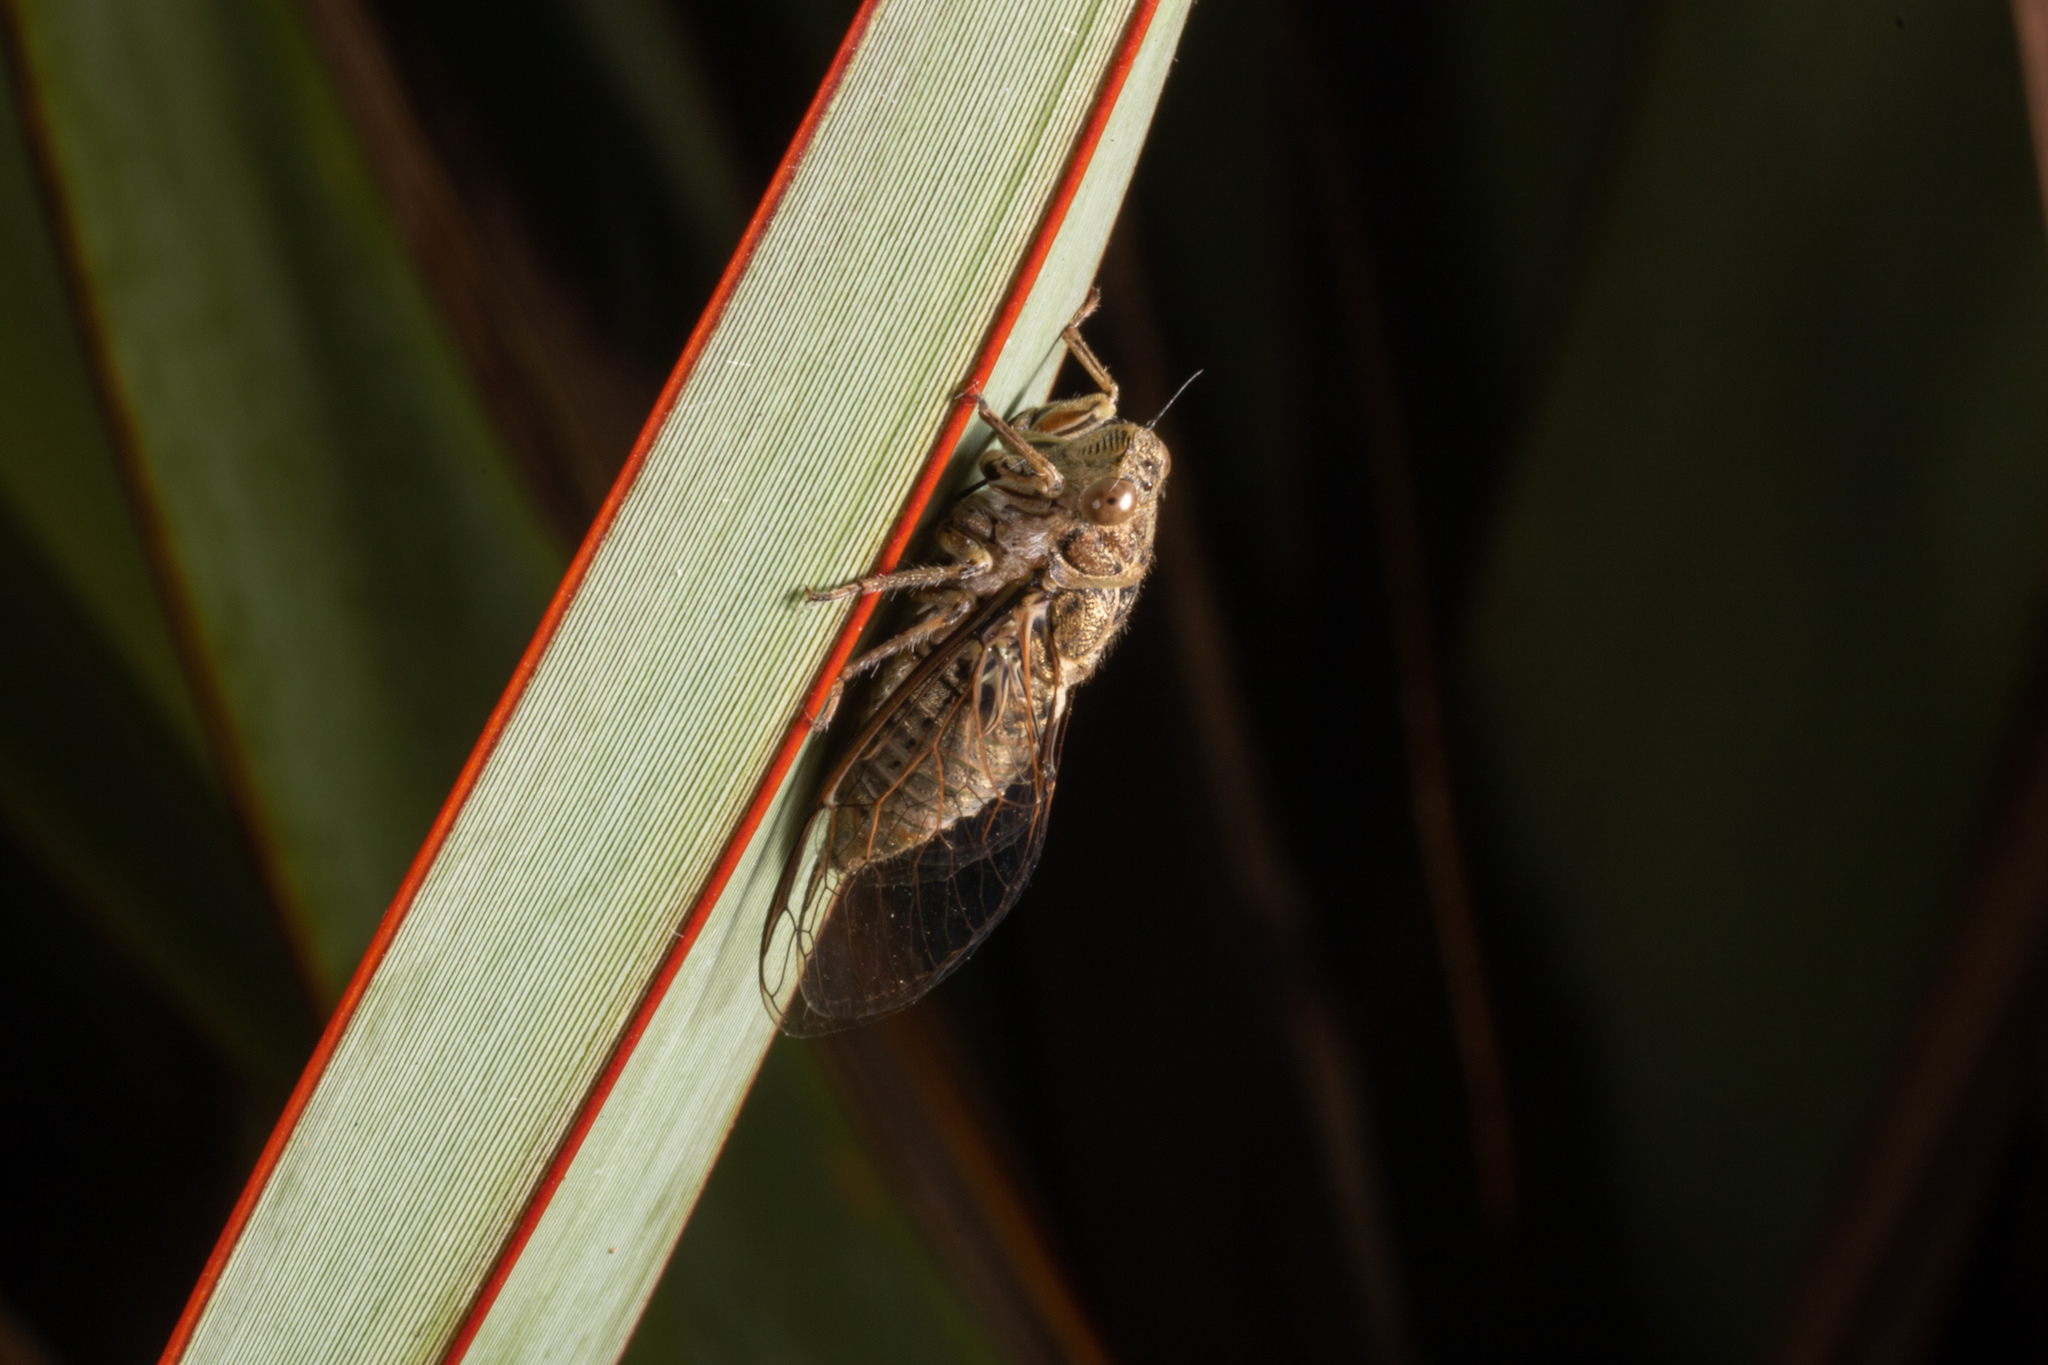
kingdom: Animalia
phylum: Arthropoda
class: Insecta
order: Hemiptera
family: Cicadidae
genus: Notopsalta
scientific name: Notopsalta sericea
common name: Clay bank cicada
